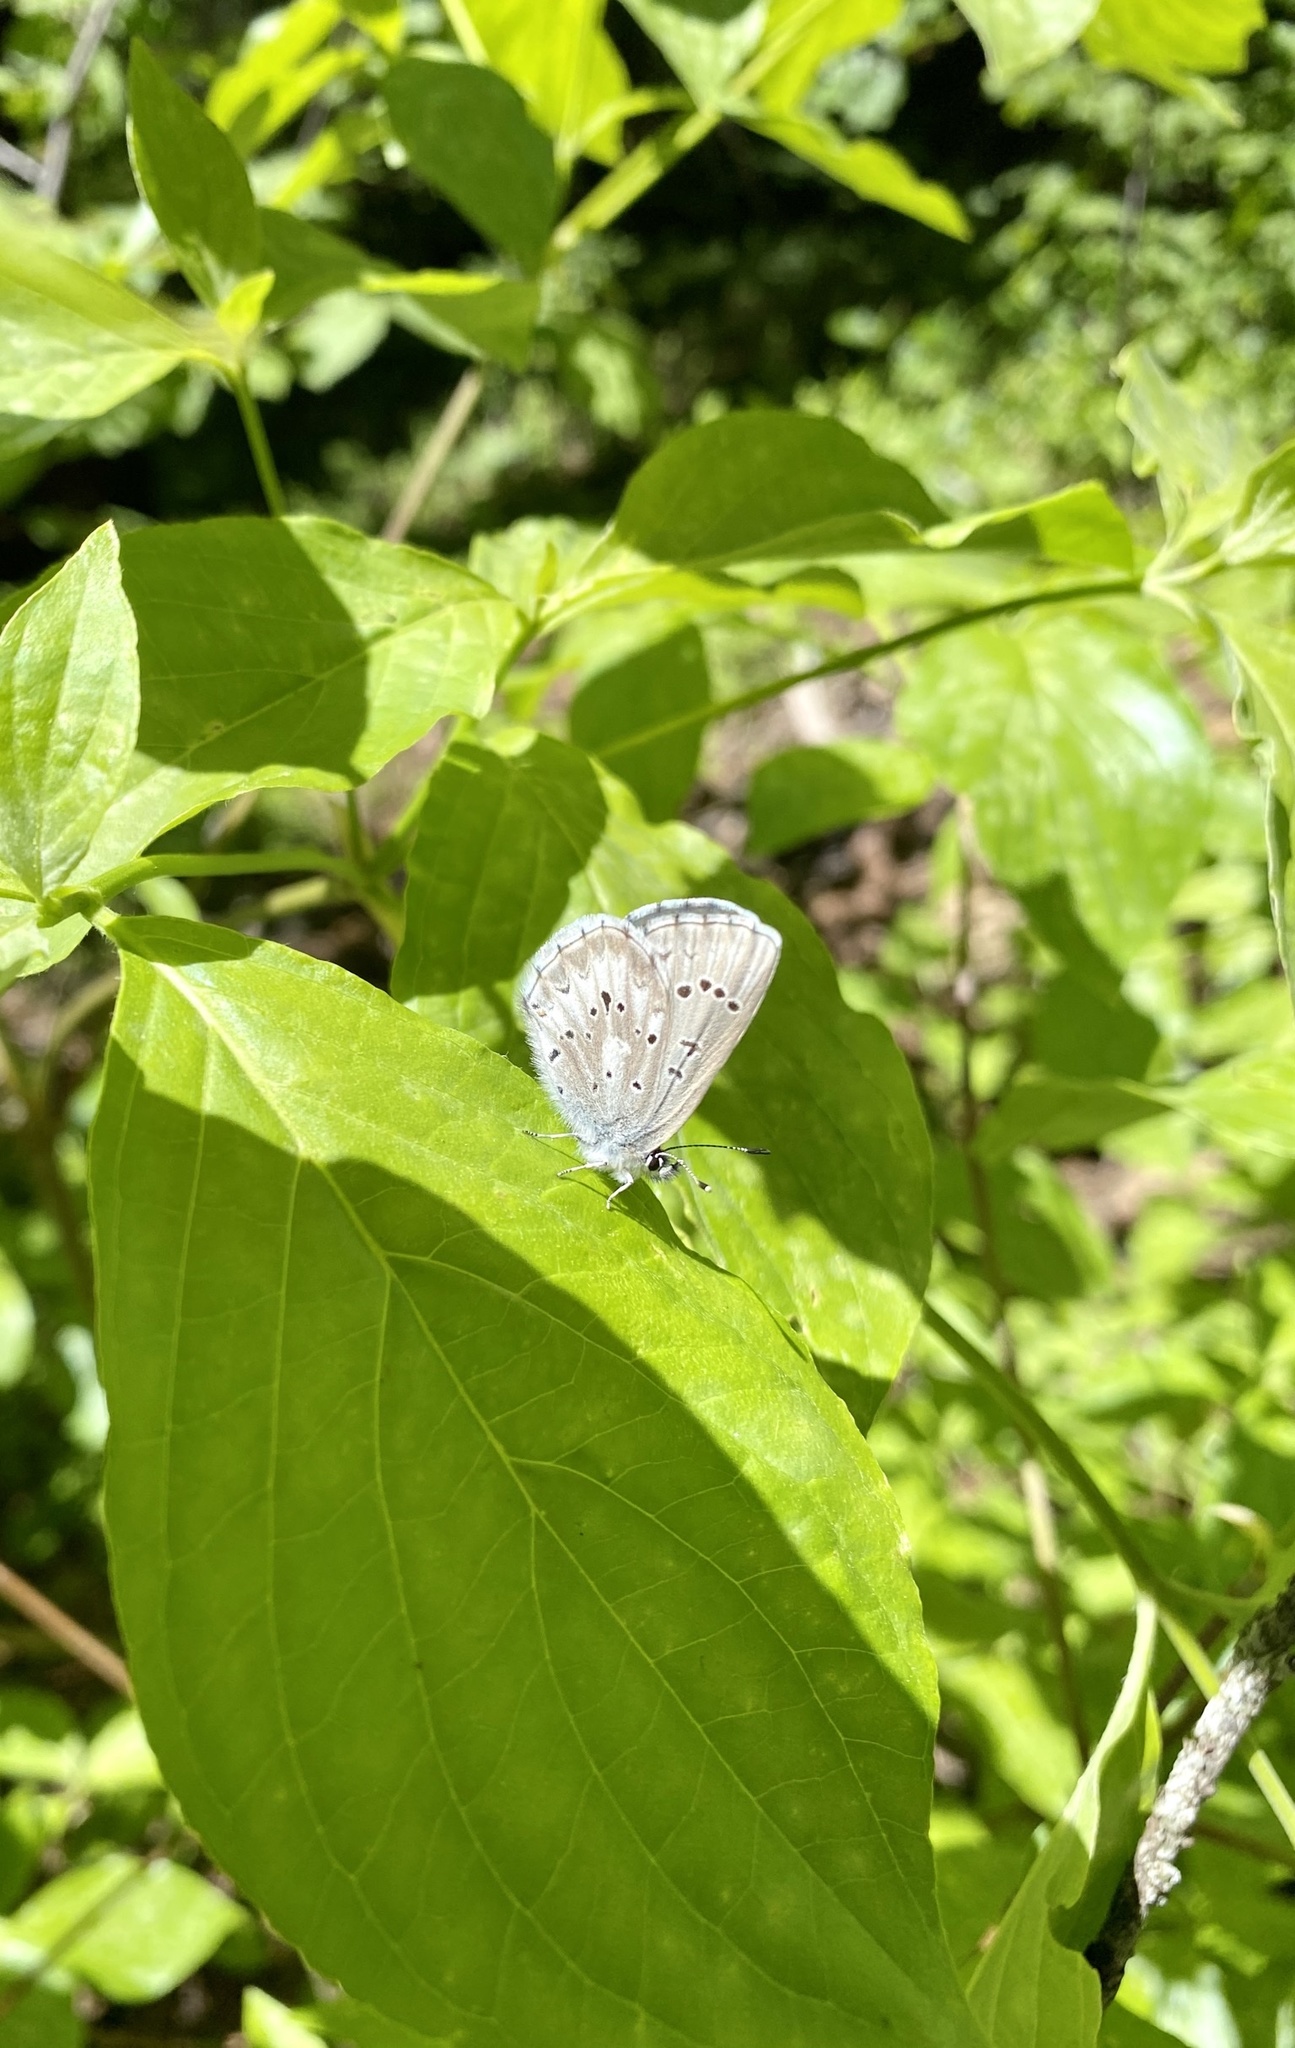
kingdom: Animalia
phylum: Arthropoda
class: Insecta
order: Lepidoptera
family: Lycaenidae
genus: Glaucopsyche
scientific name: Glaucopsyche piasus
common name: Arrowhead blue
